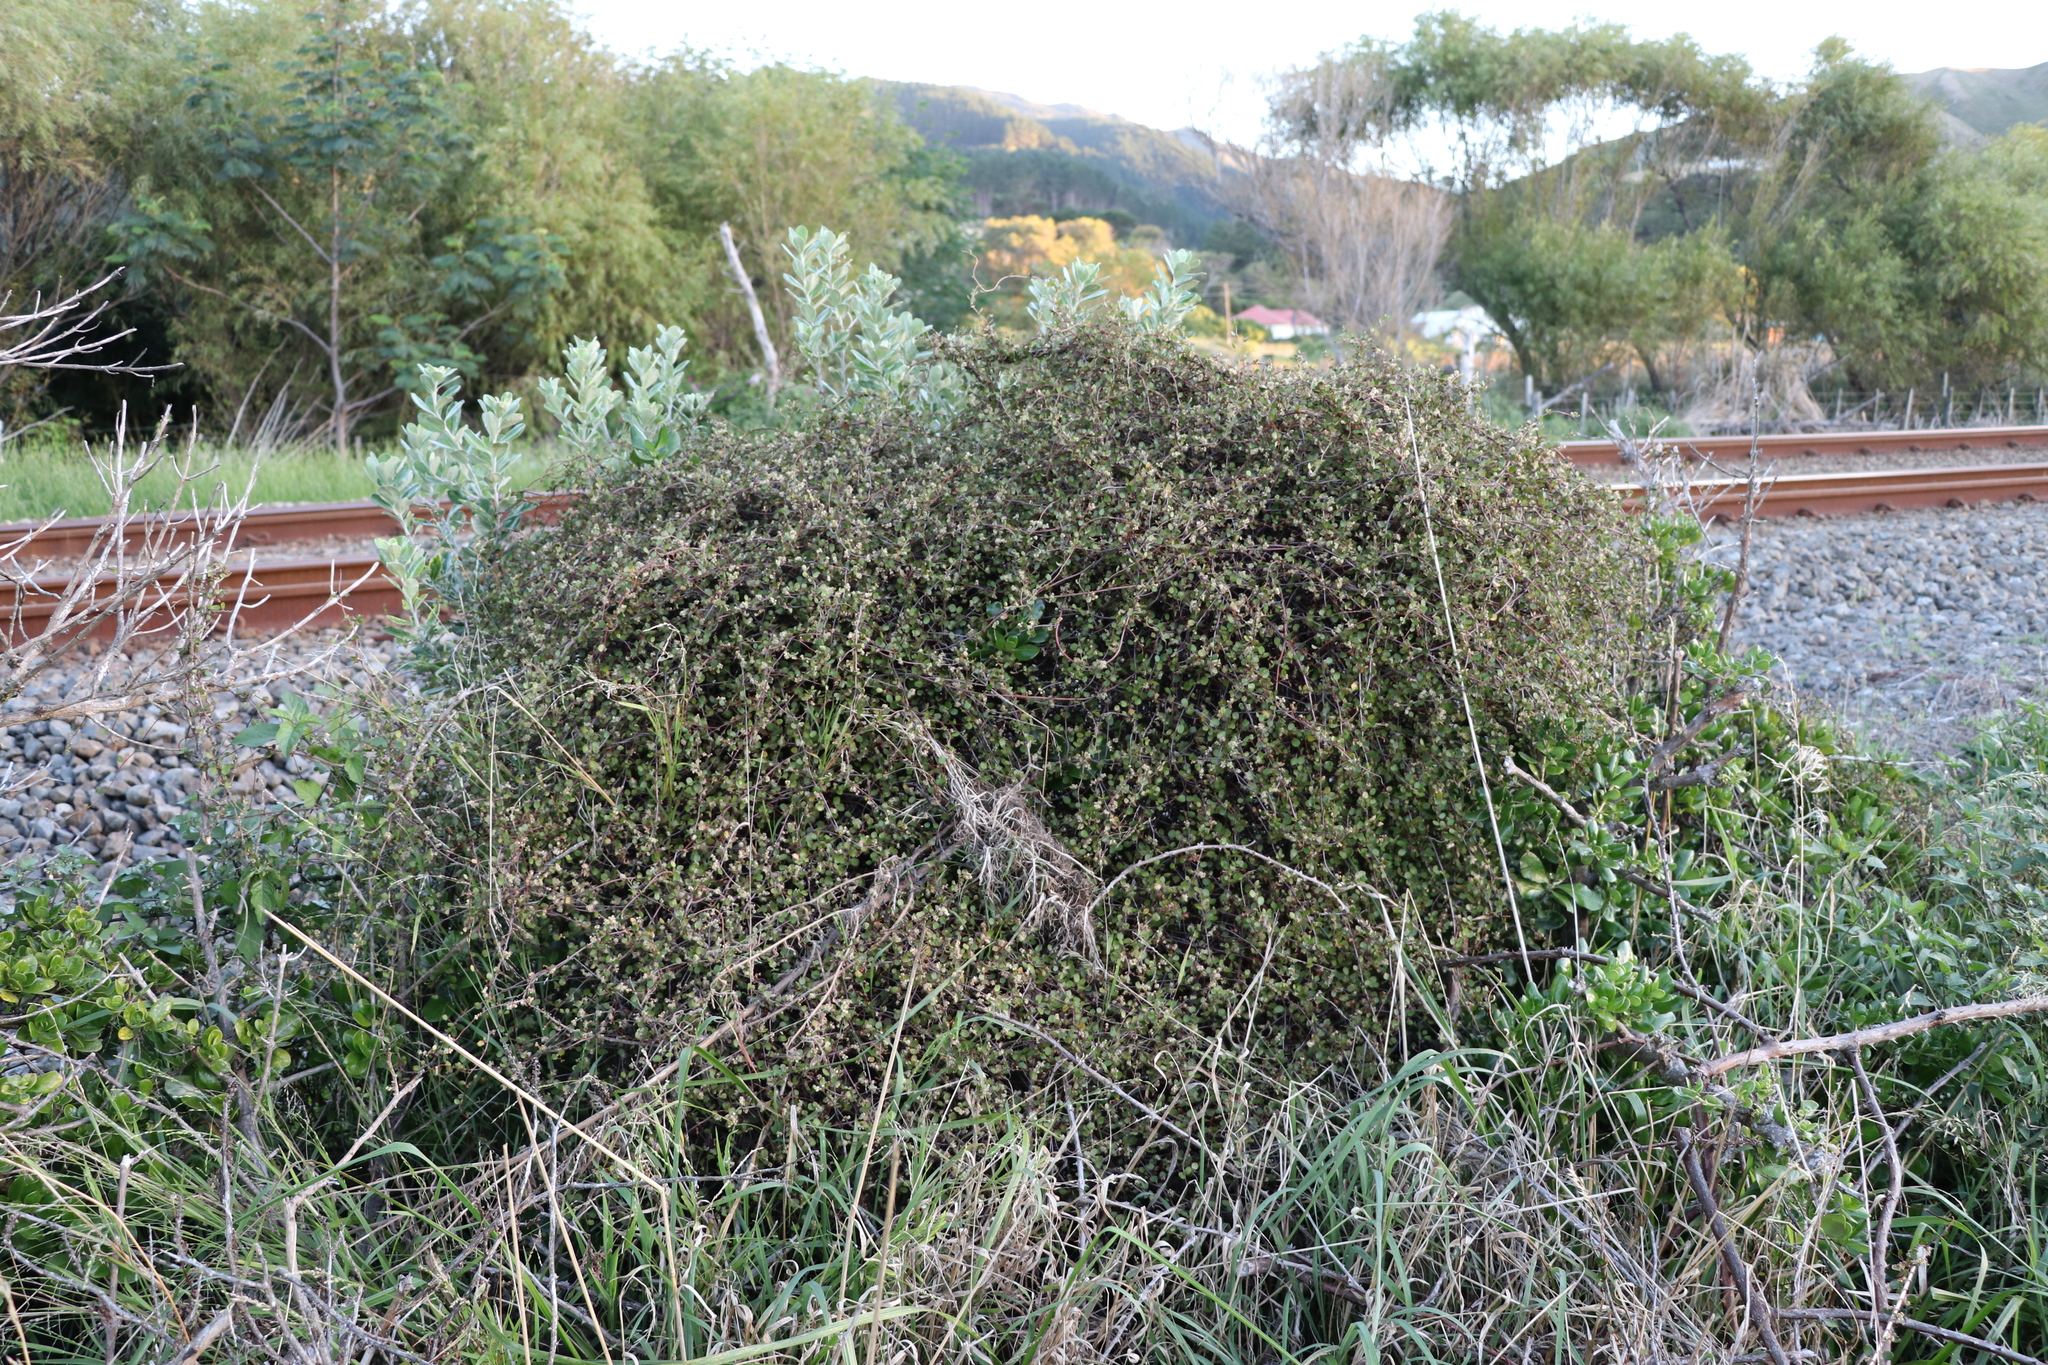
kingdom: Plantae
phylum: Tracheophyta
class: Magnoliopsida
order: Caryophyllales
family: Polygonaceae
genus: Muehlenbeckia
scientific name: Muehlenbeckia complexa
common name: Wireplant
